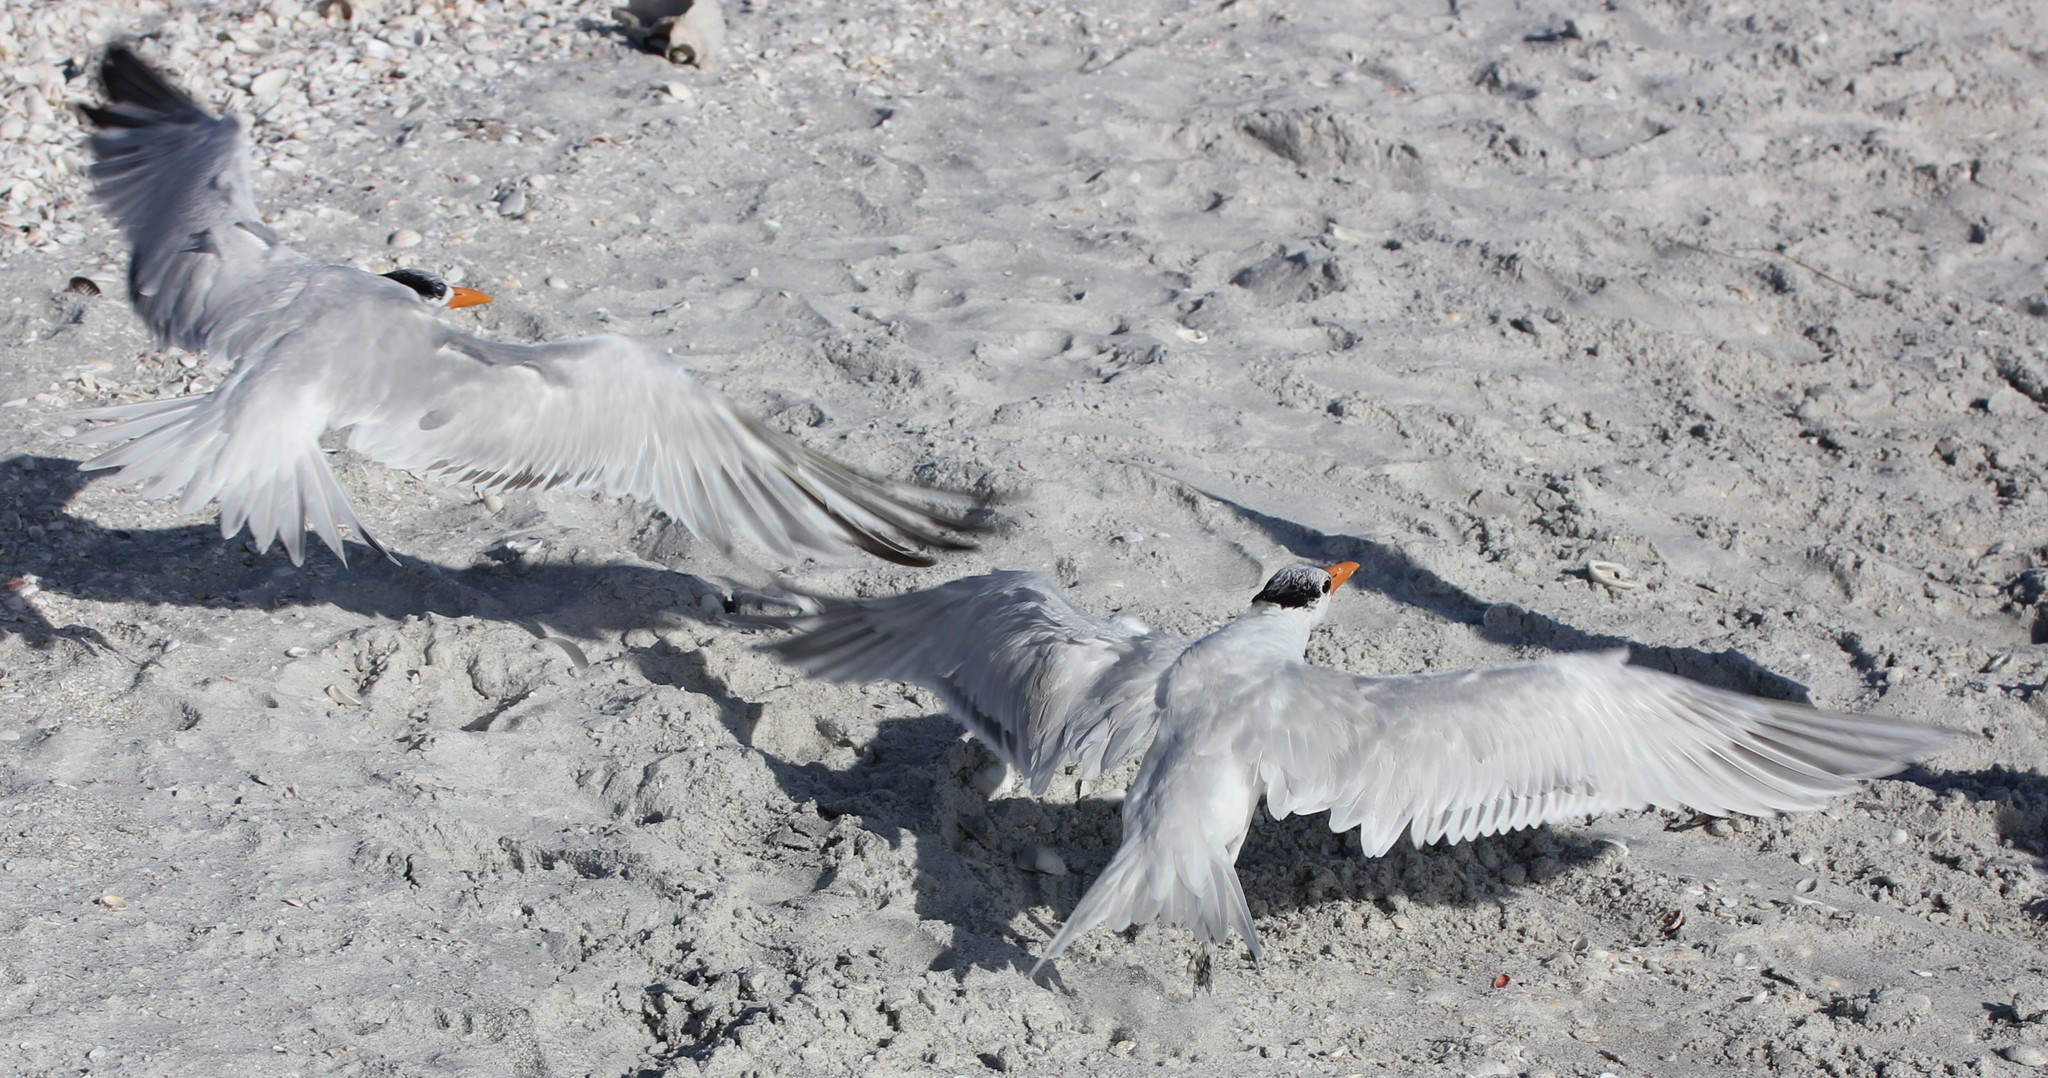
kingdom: Animalia
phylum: Chordata
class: Aves
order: Charadriiformes
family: Laridae
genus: Thalasseus
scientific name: Thalasseus maximus
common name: Royal tern
